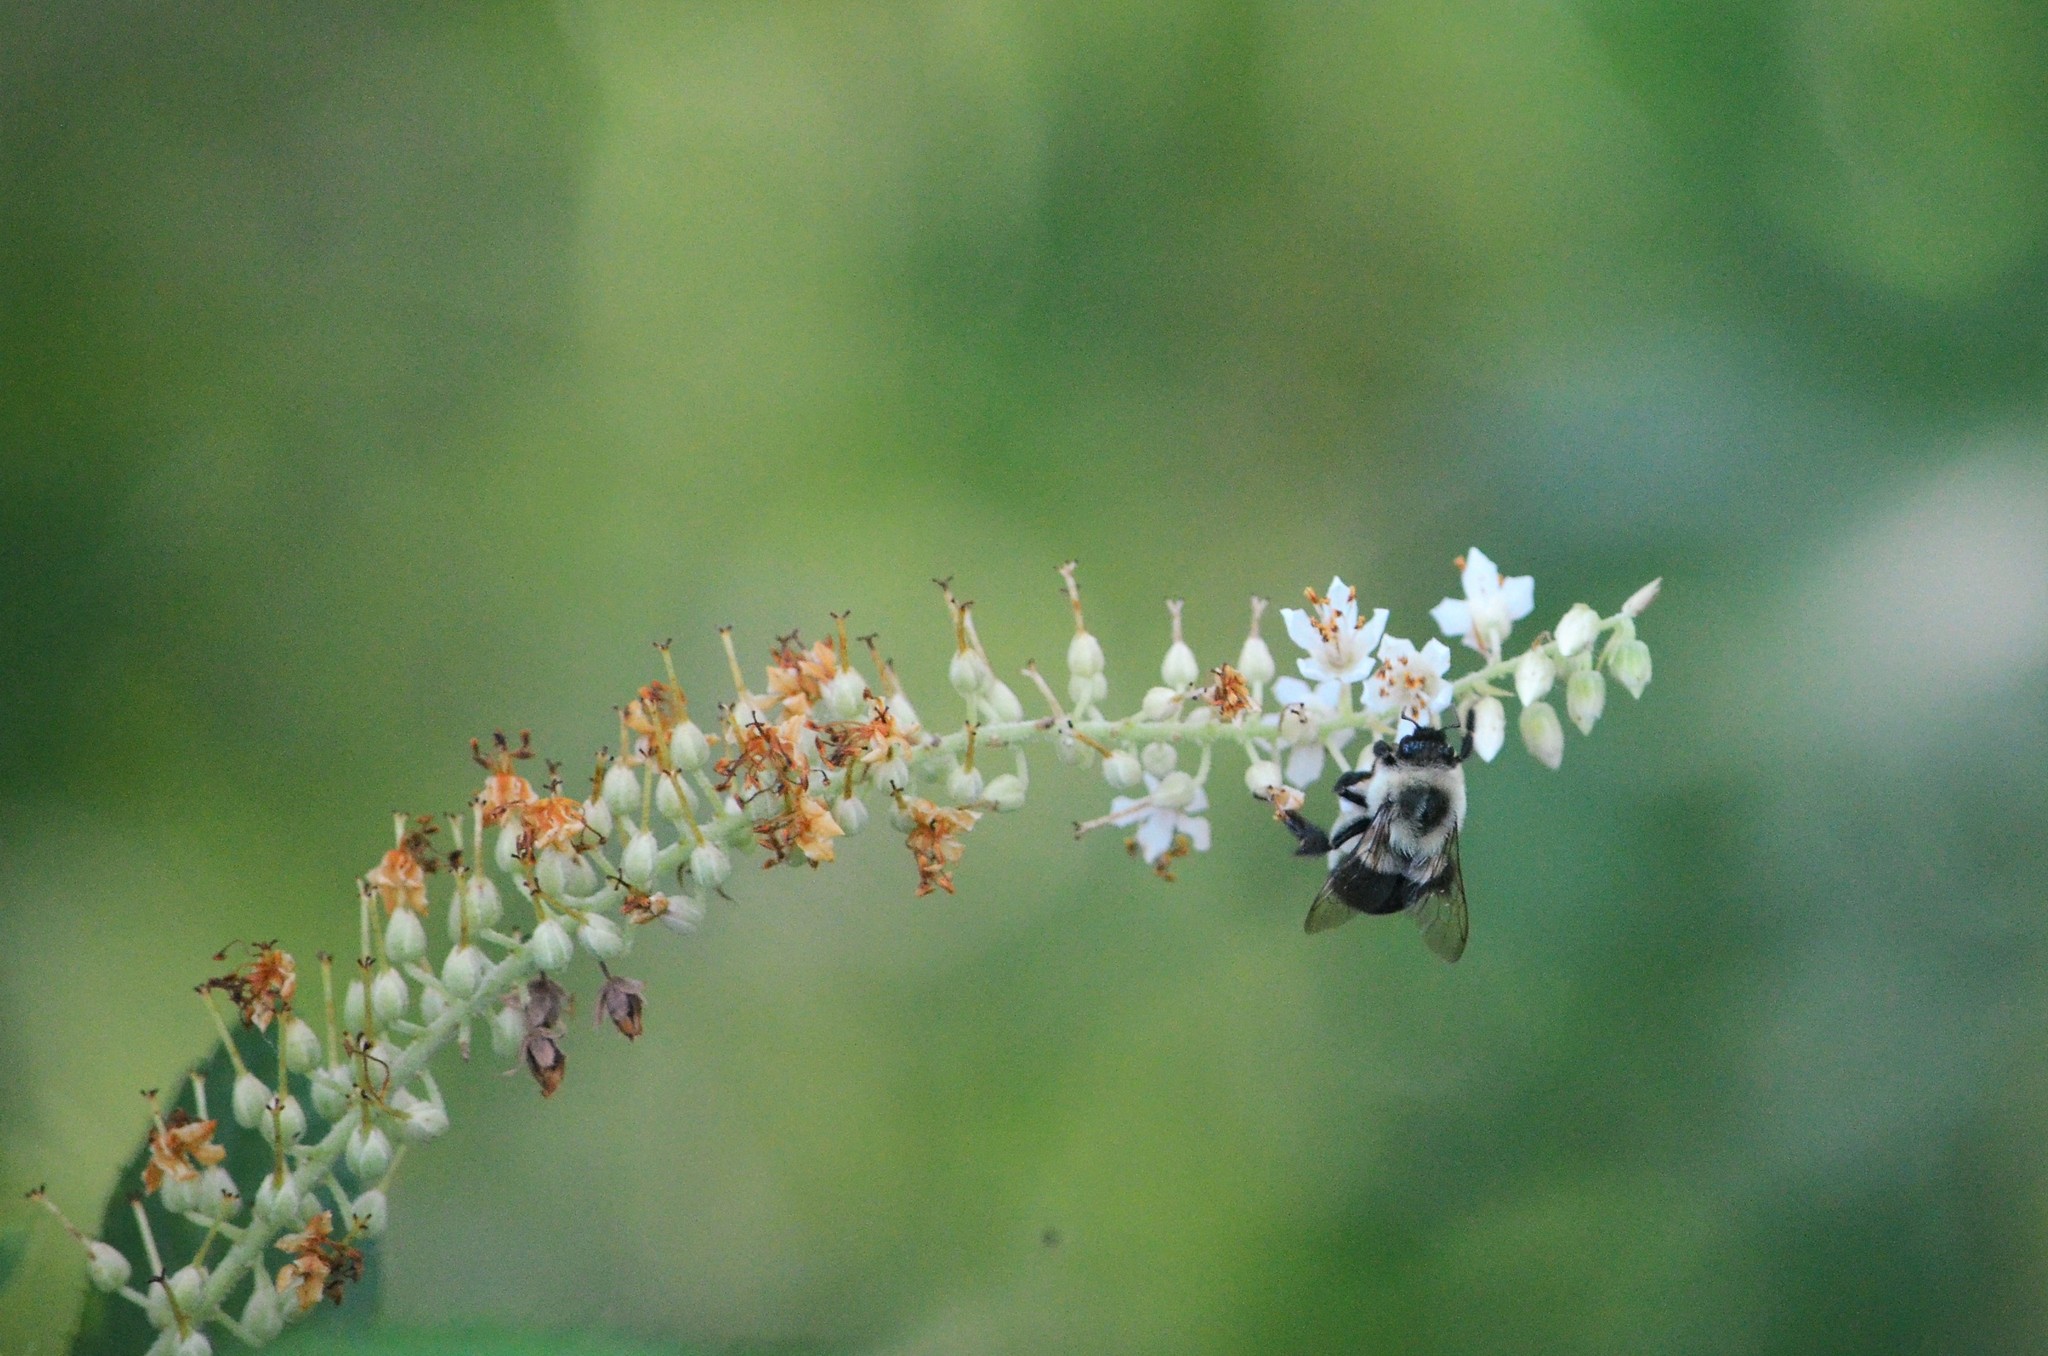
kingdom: Plantae
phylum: Tracheophyta
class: Magnoliopsida
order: Ericales
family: Clethraceae
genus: Clethra
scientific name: Clethra alnifolia
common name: Sweet pepperbush
